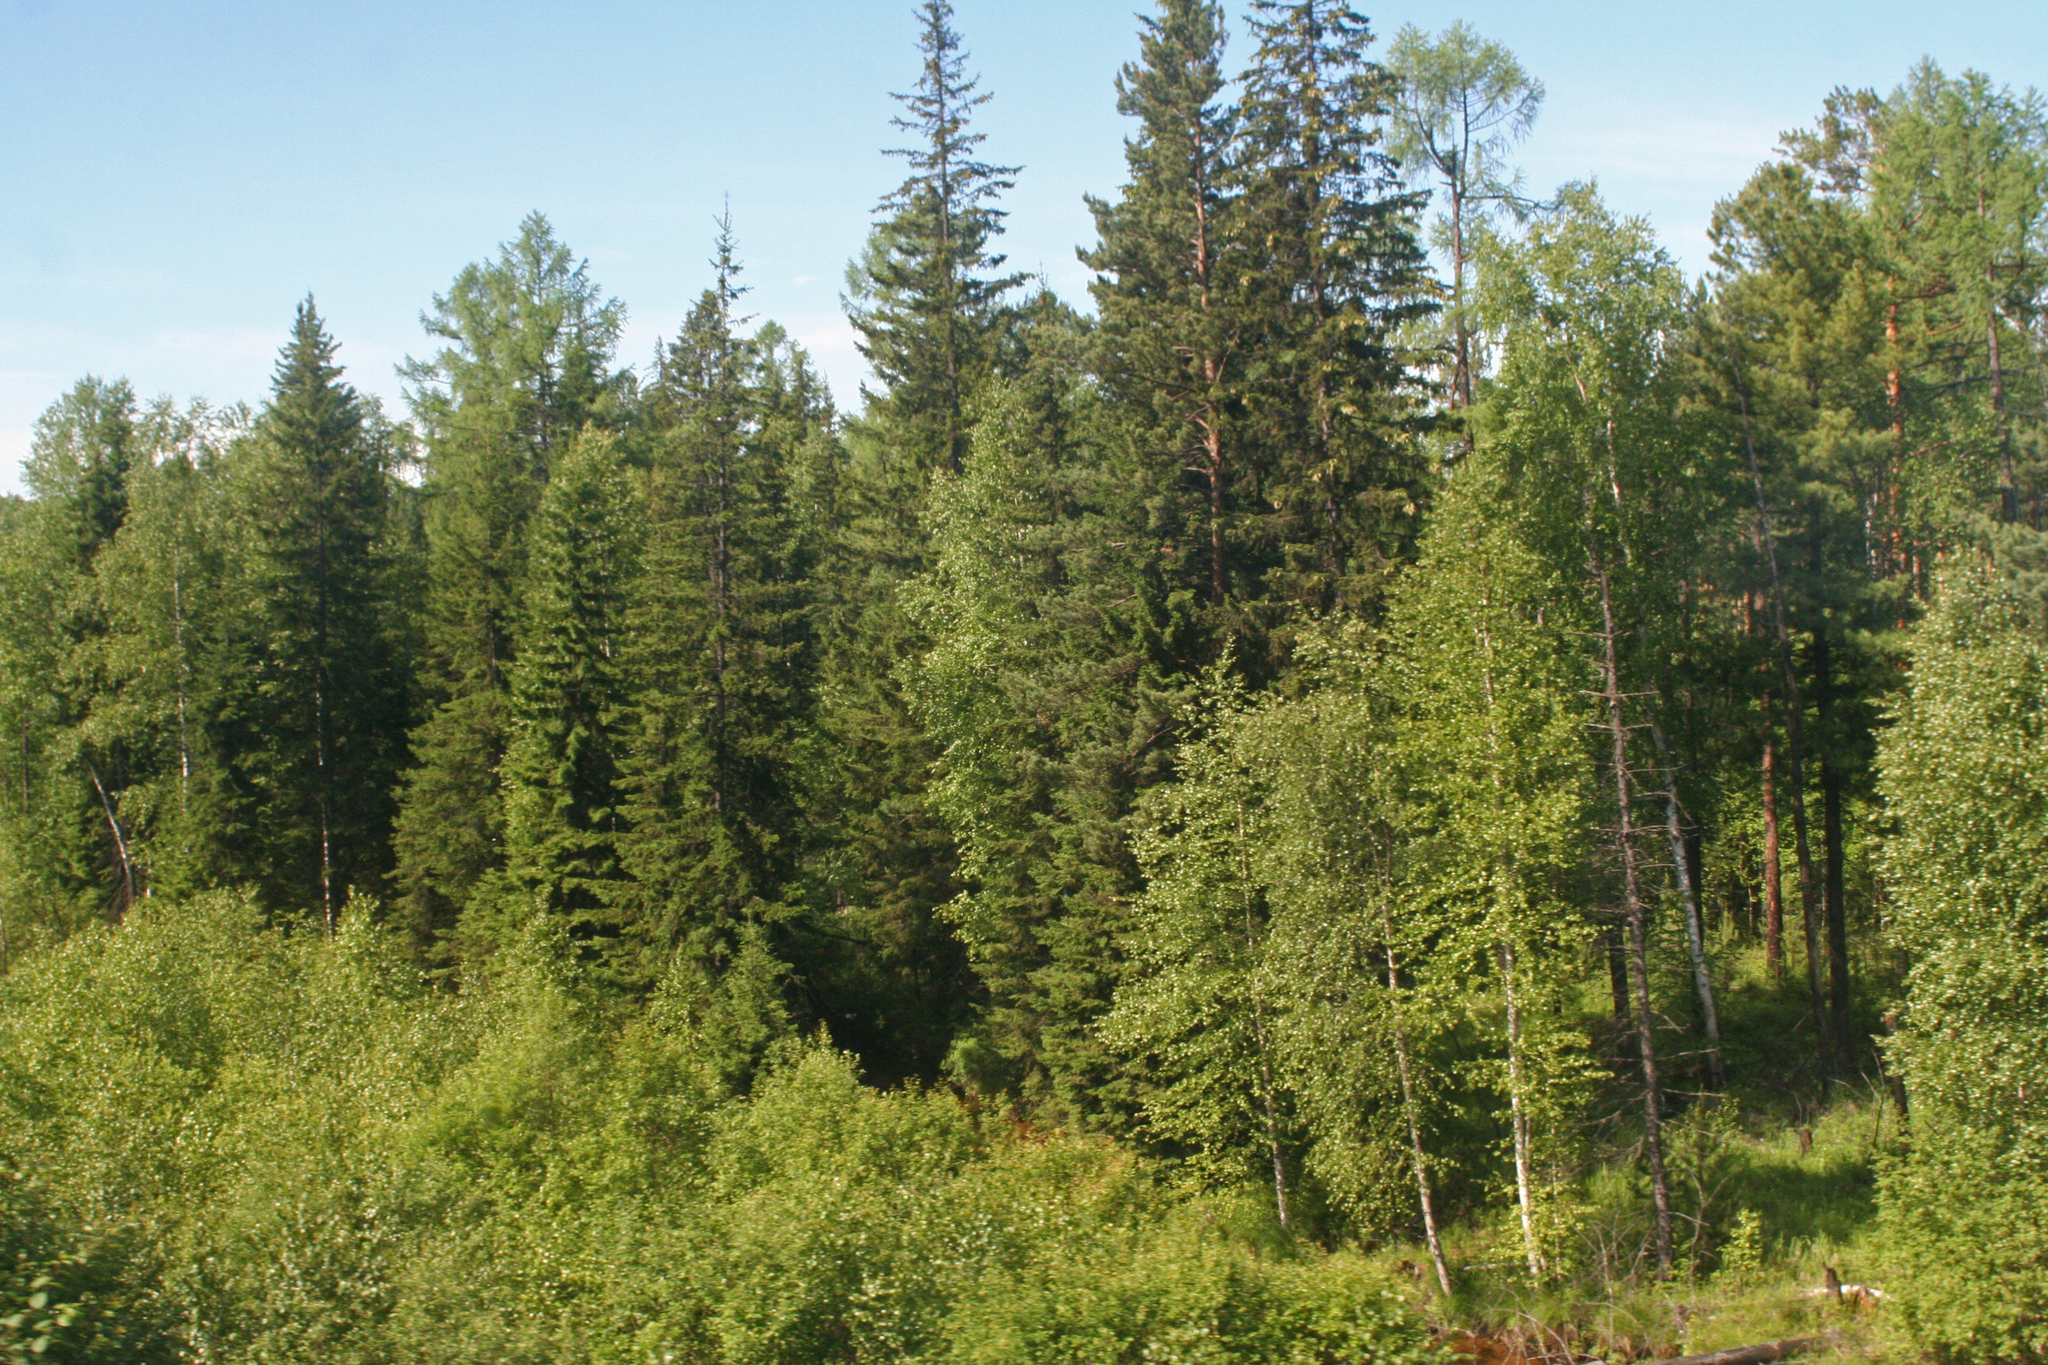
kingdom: Plantae
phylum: Tracheophyta
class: Pinopsida
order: Pinales
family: Pinaceae
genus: Pinus
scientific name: Pinus sibirica
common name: Siberian pine
